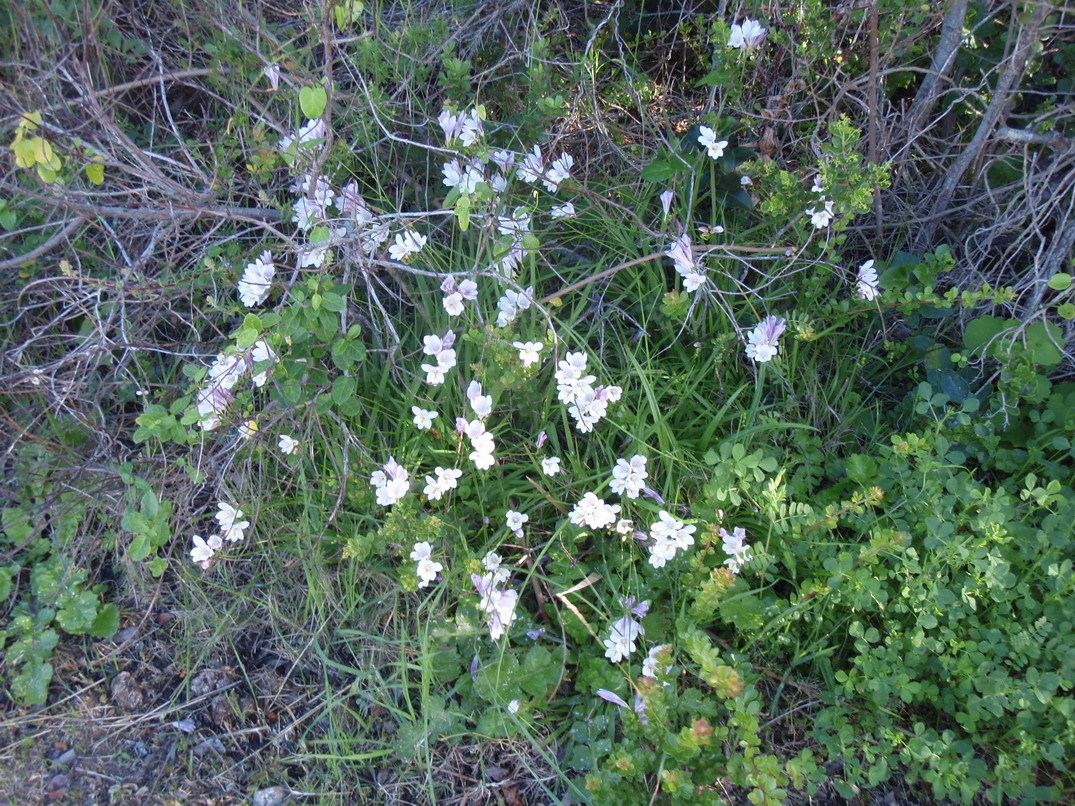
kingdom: Plantae
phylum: Tracheophyta
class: Liliopsida
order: Asparagales
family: Iridaceae
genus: Freesia
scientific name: Freesia leichtlinii
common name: Freesia
